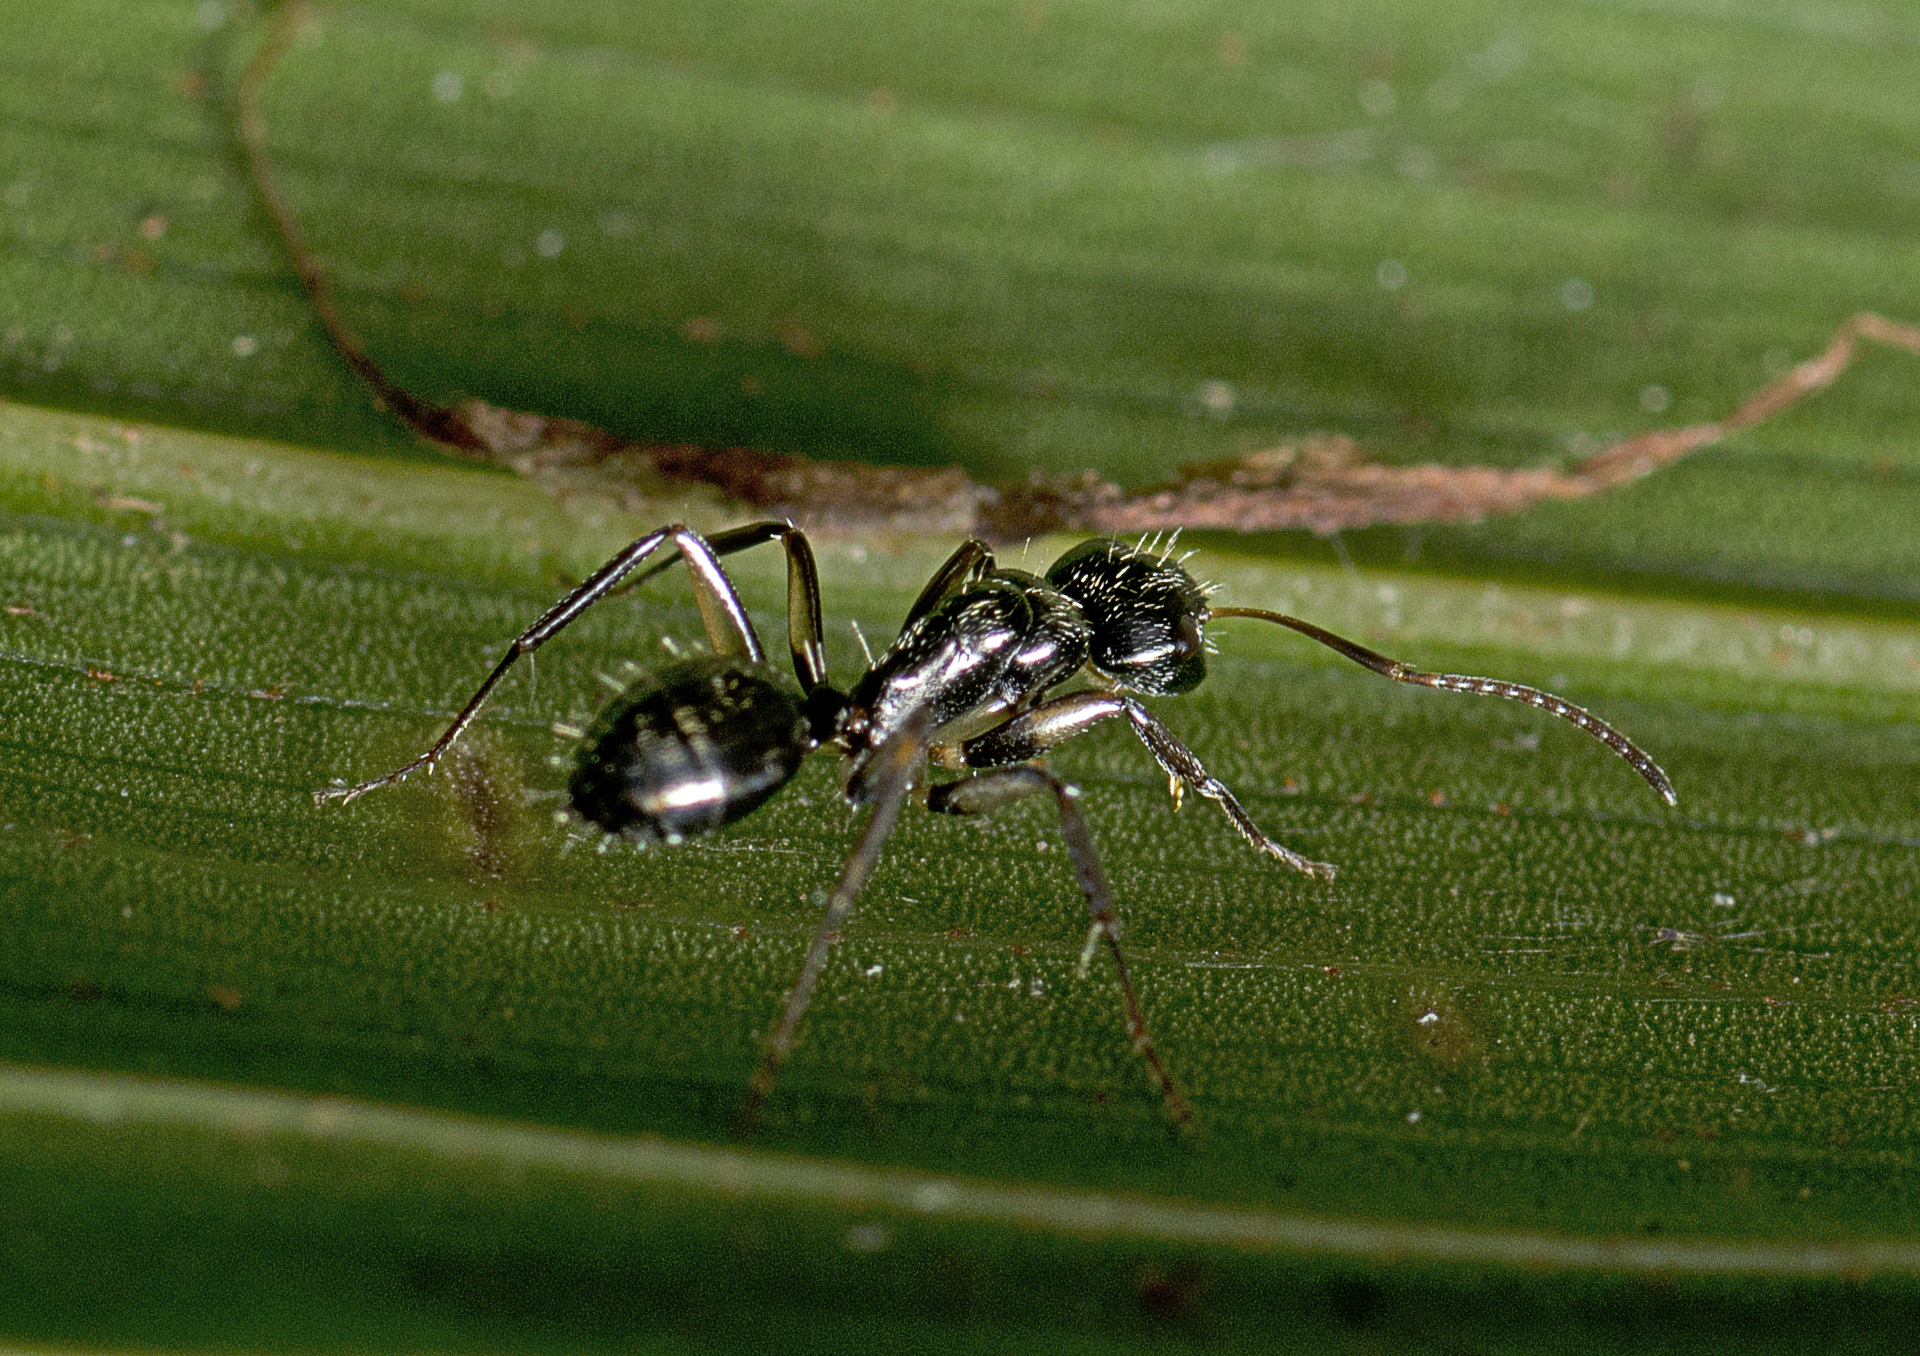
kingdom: Animalia
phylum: Arthropoda
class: Insecta
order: Hymenoptera
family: Formicidae
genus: Camponotus
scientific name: Camponotus froggatti
